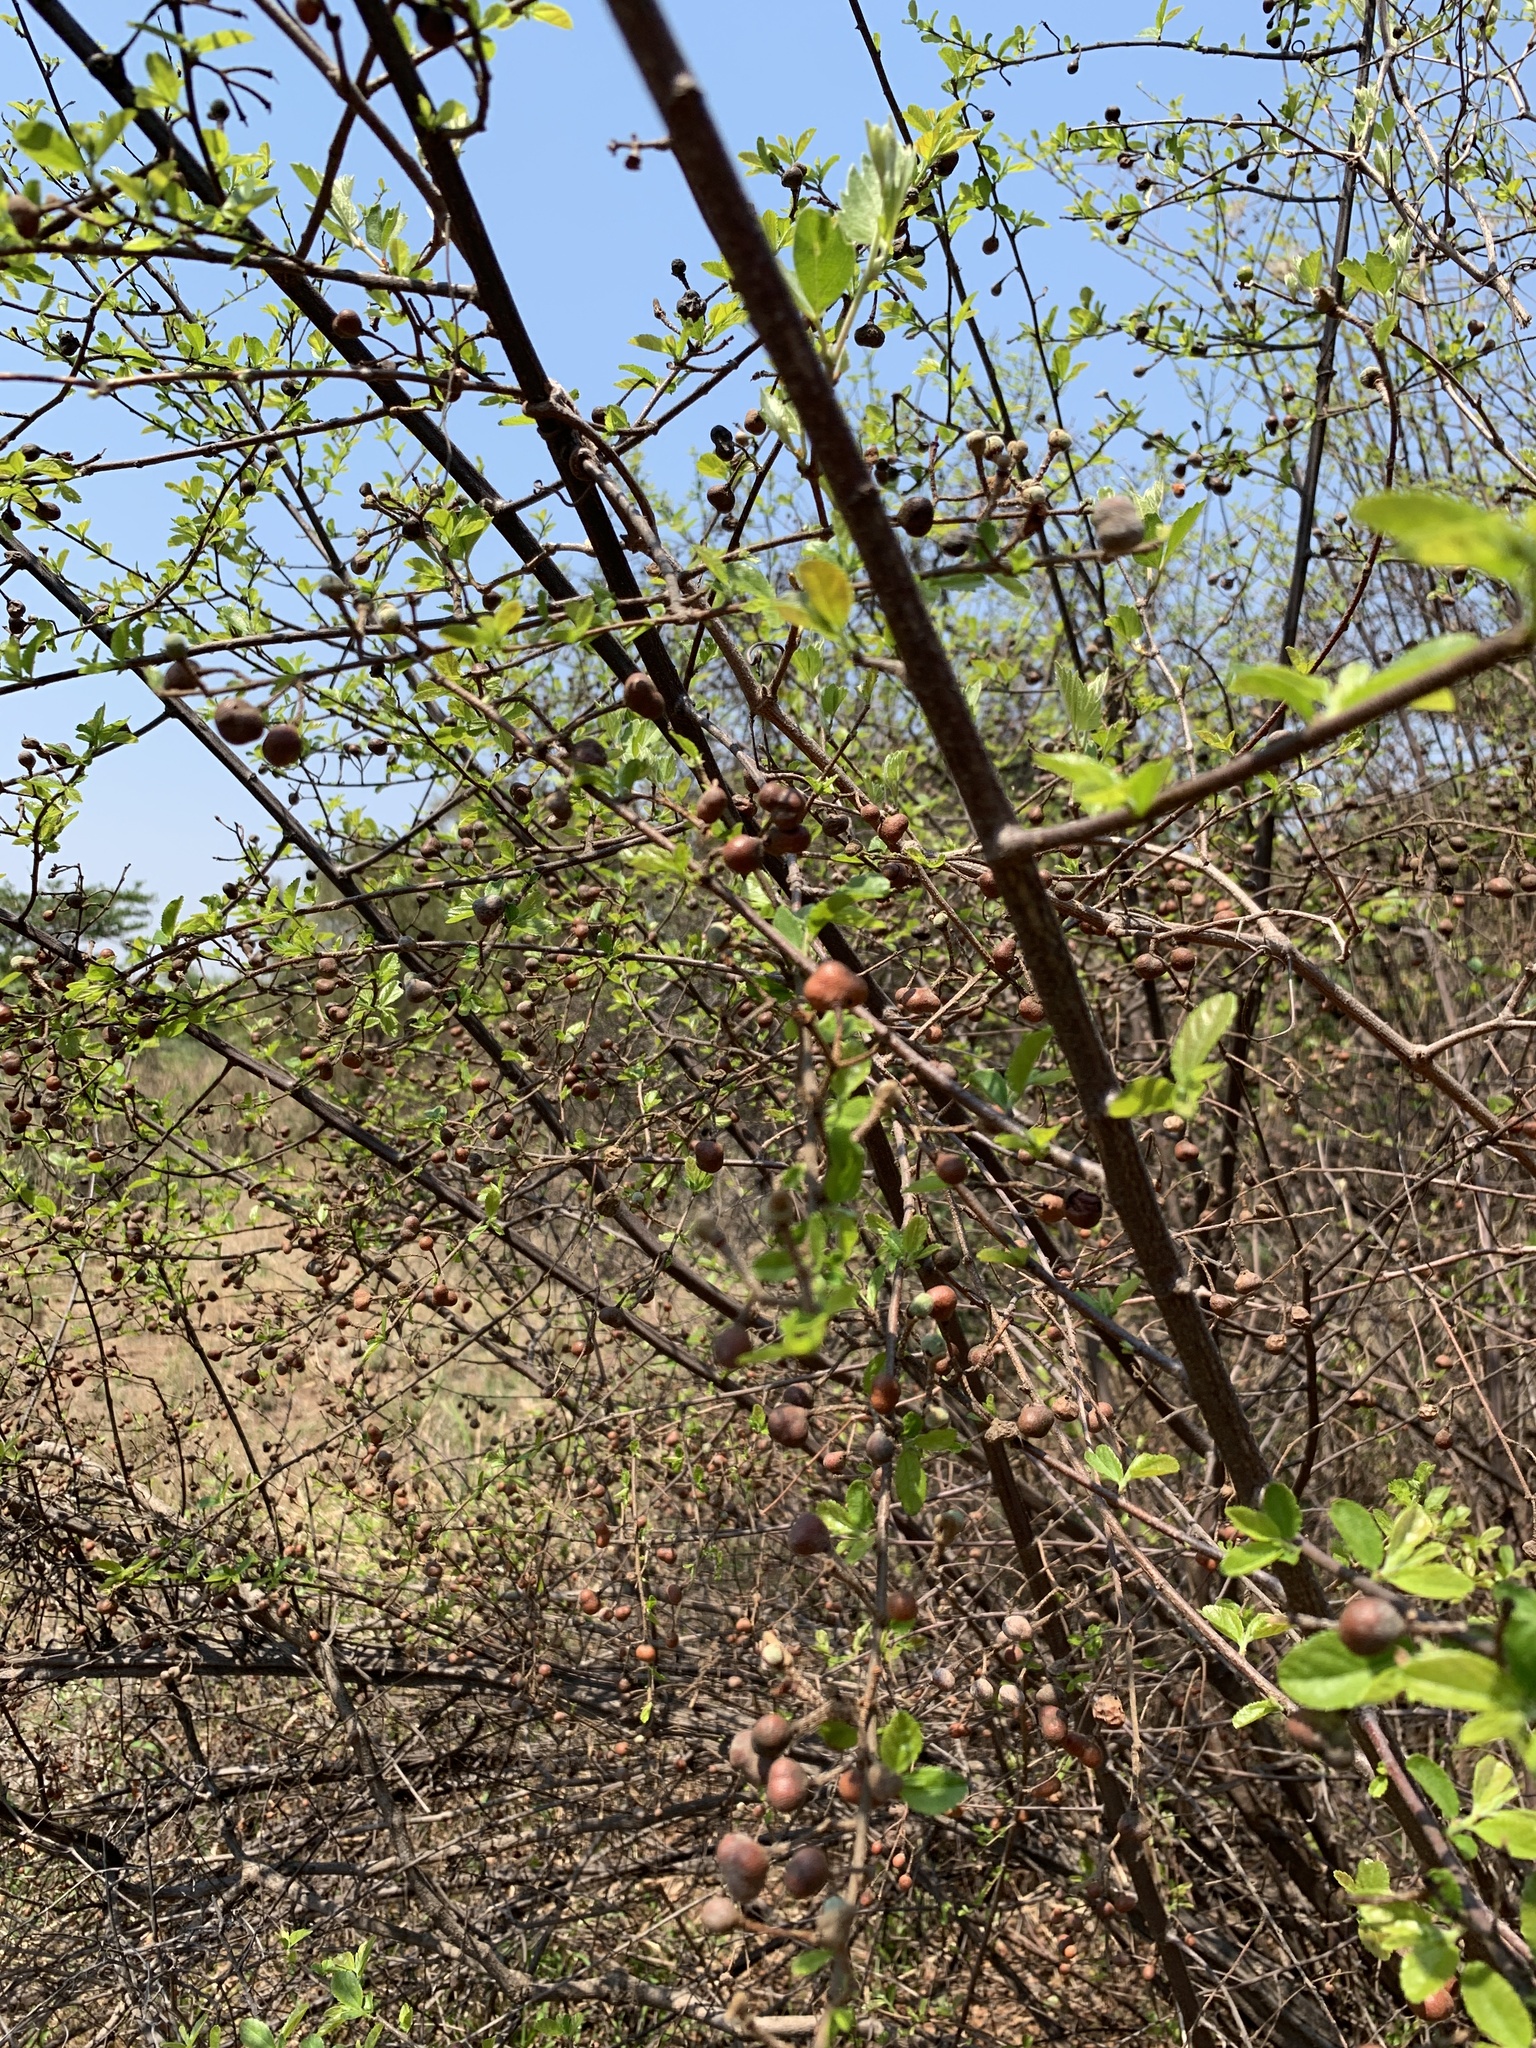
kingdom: Plantae
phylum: Tracheophyta
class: Magnoliopsida
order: Malvales
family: Malvaceae
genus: Grewia
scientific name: Grewia flavescens
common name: Sandpaper raisin
